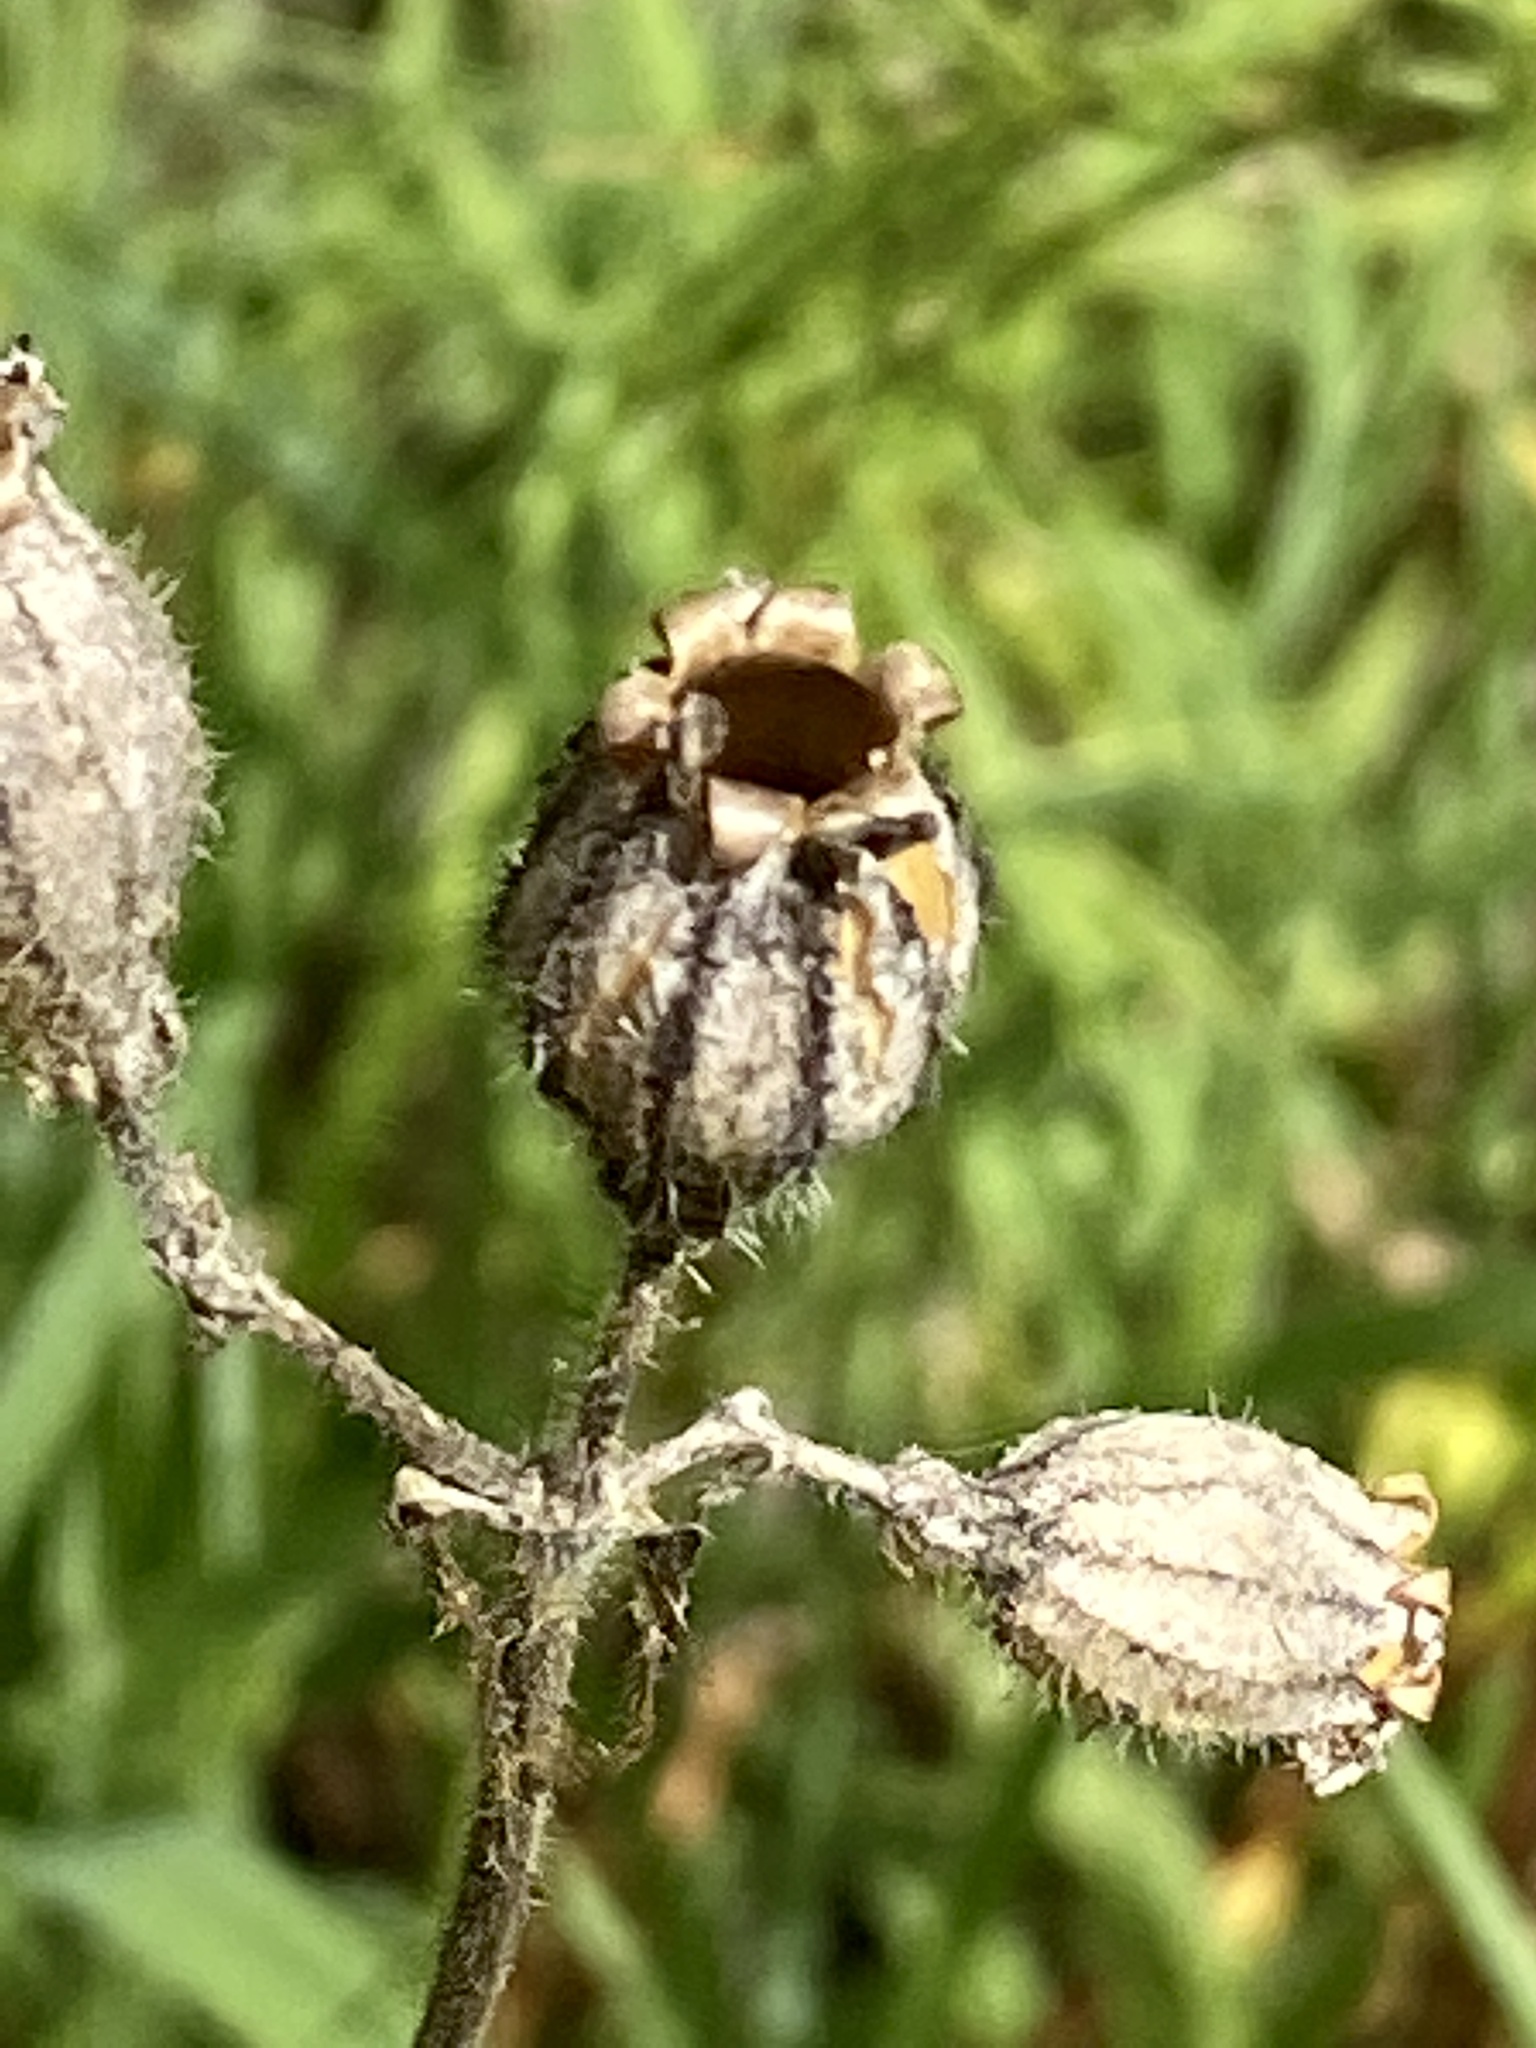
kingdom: Plantae
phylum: Tracheophyta
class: Magnoliopsida
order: Caryophyllales
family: Caryophyllaceae
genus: Silene
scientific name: Silene latifolia
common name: White campion
